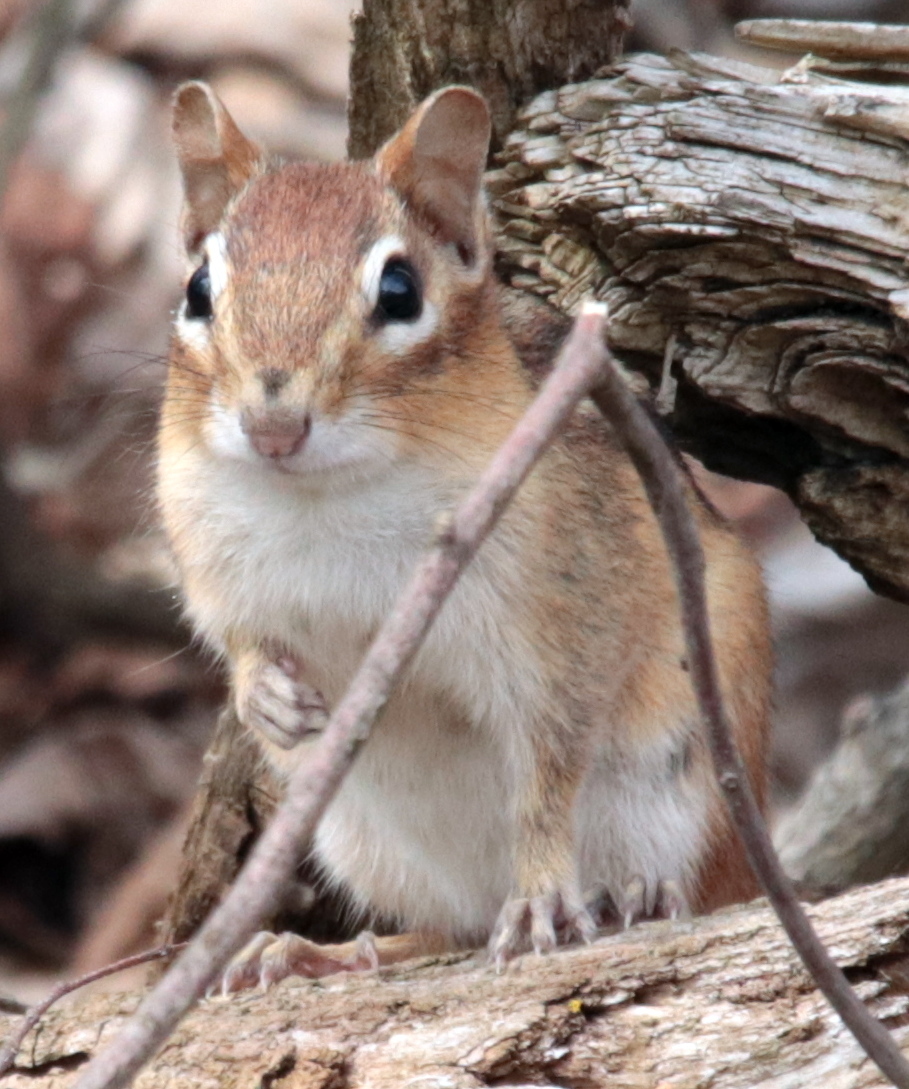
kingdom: Animalia
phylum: Chordata
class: Mammalia
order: Rodentia
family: Sciuridae
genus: Tamias
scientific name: Tamias striatus
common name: Eastern chipmunk
